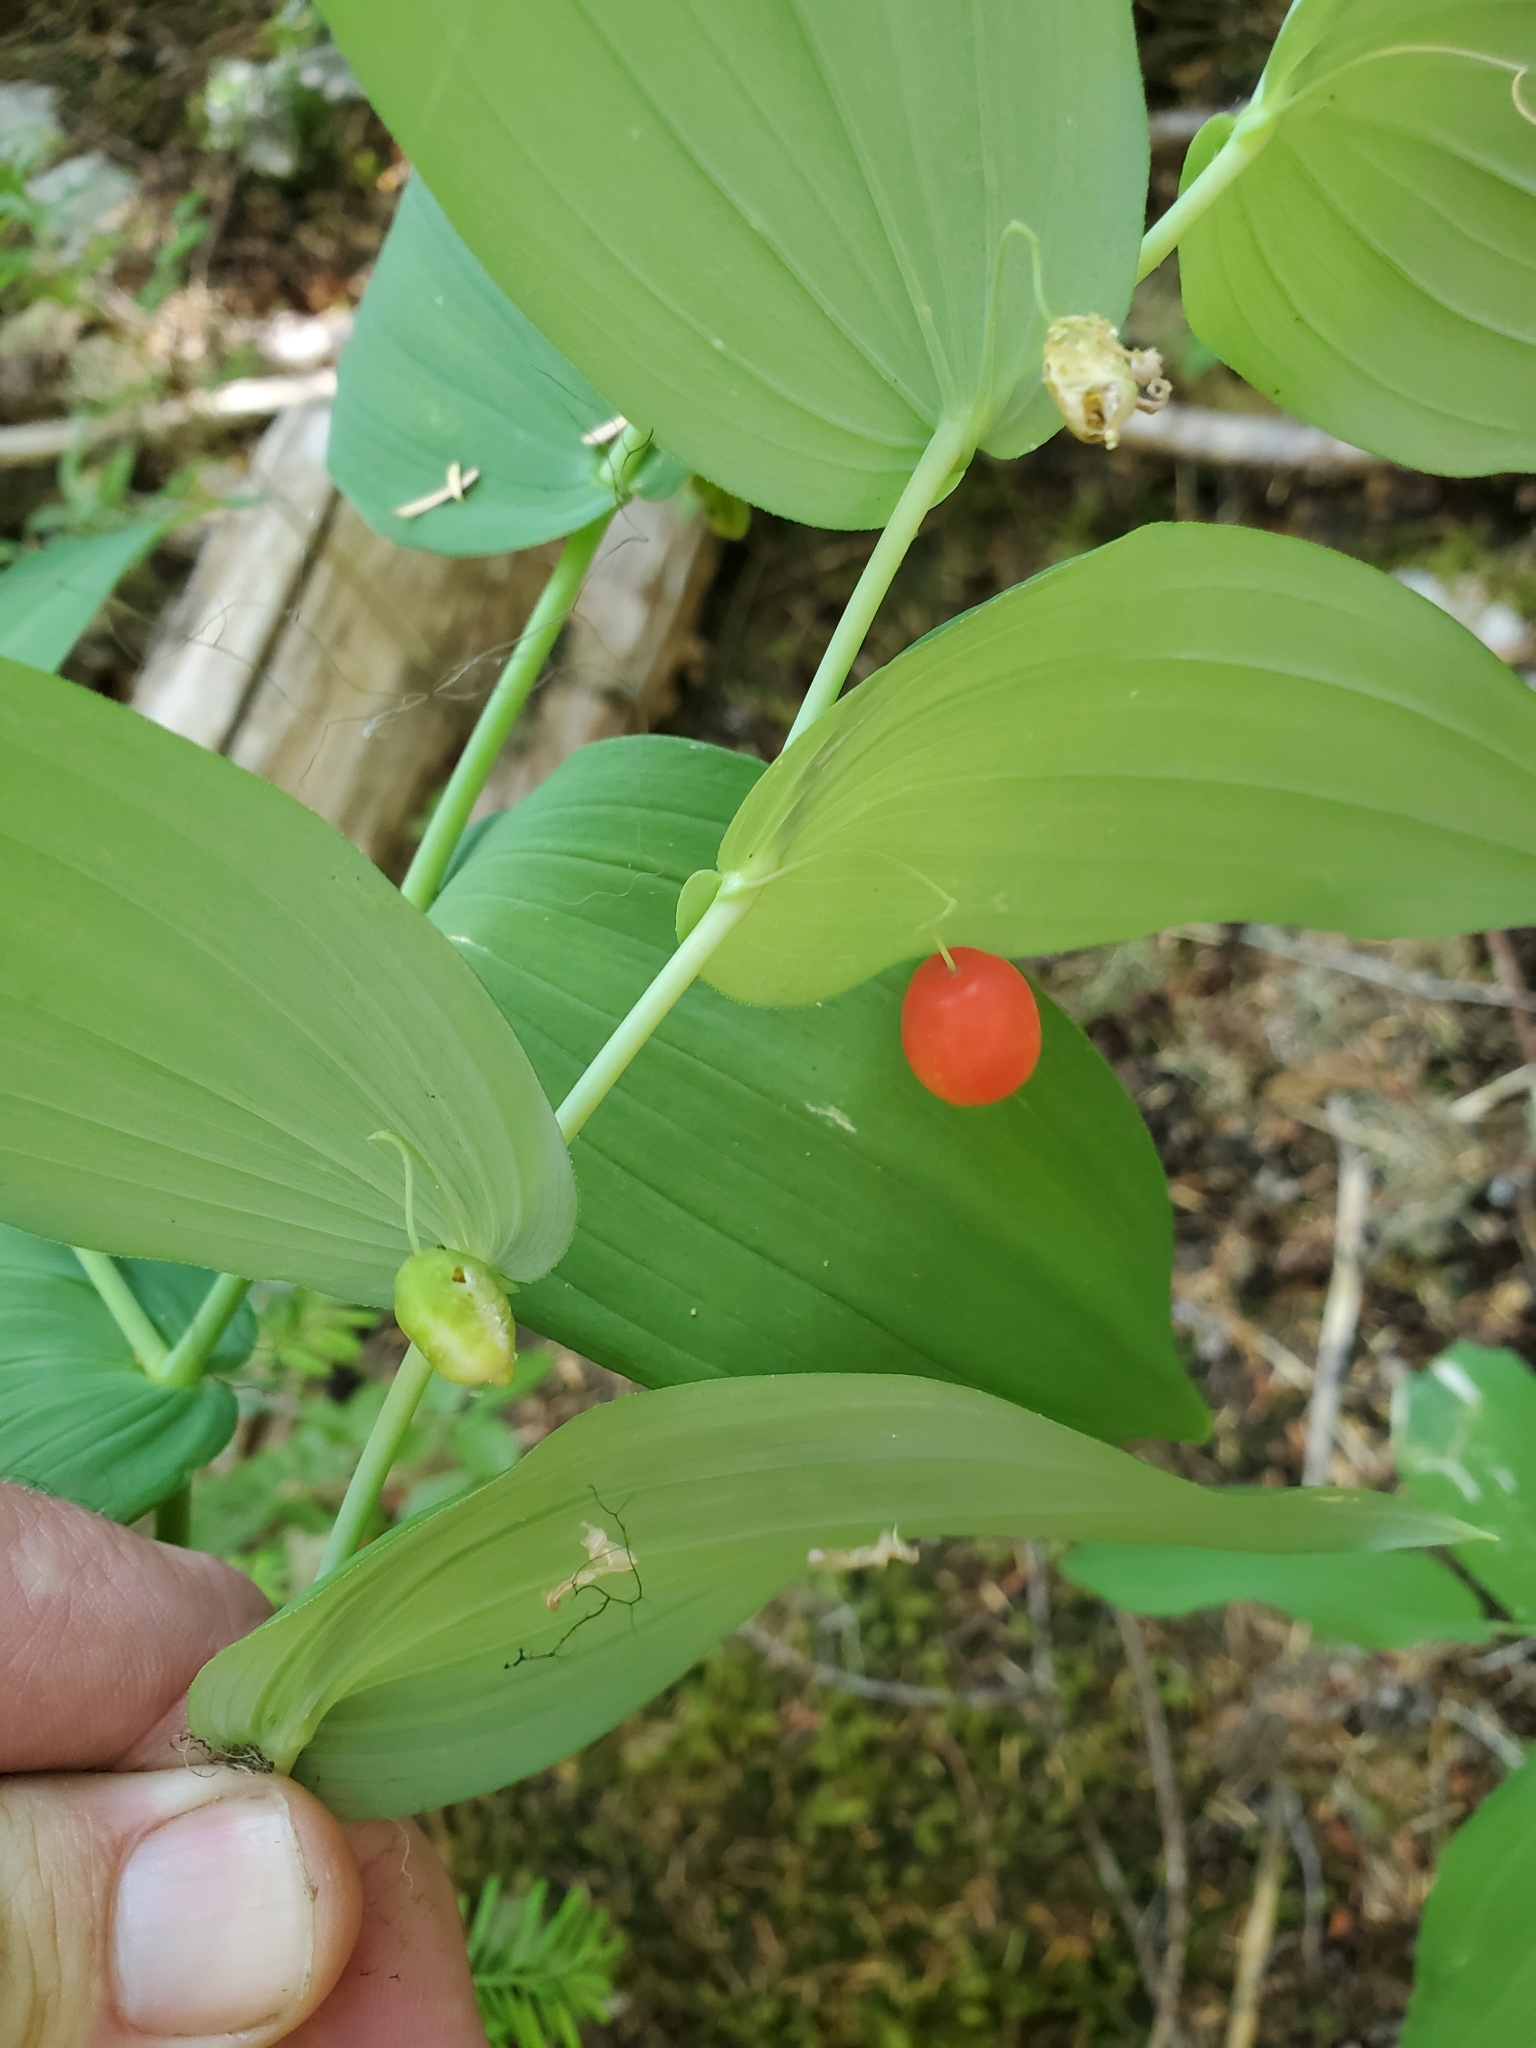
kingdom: Plantae
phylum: Tracheophyta
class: Liliopsida
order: Liliales
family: Liliaceae
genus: Streptopus
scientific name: Streptopus amplexifolius
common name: Clasp twisted stalk
